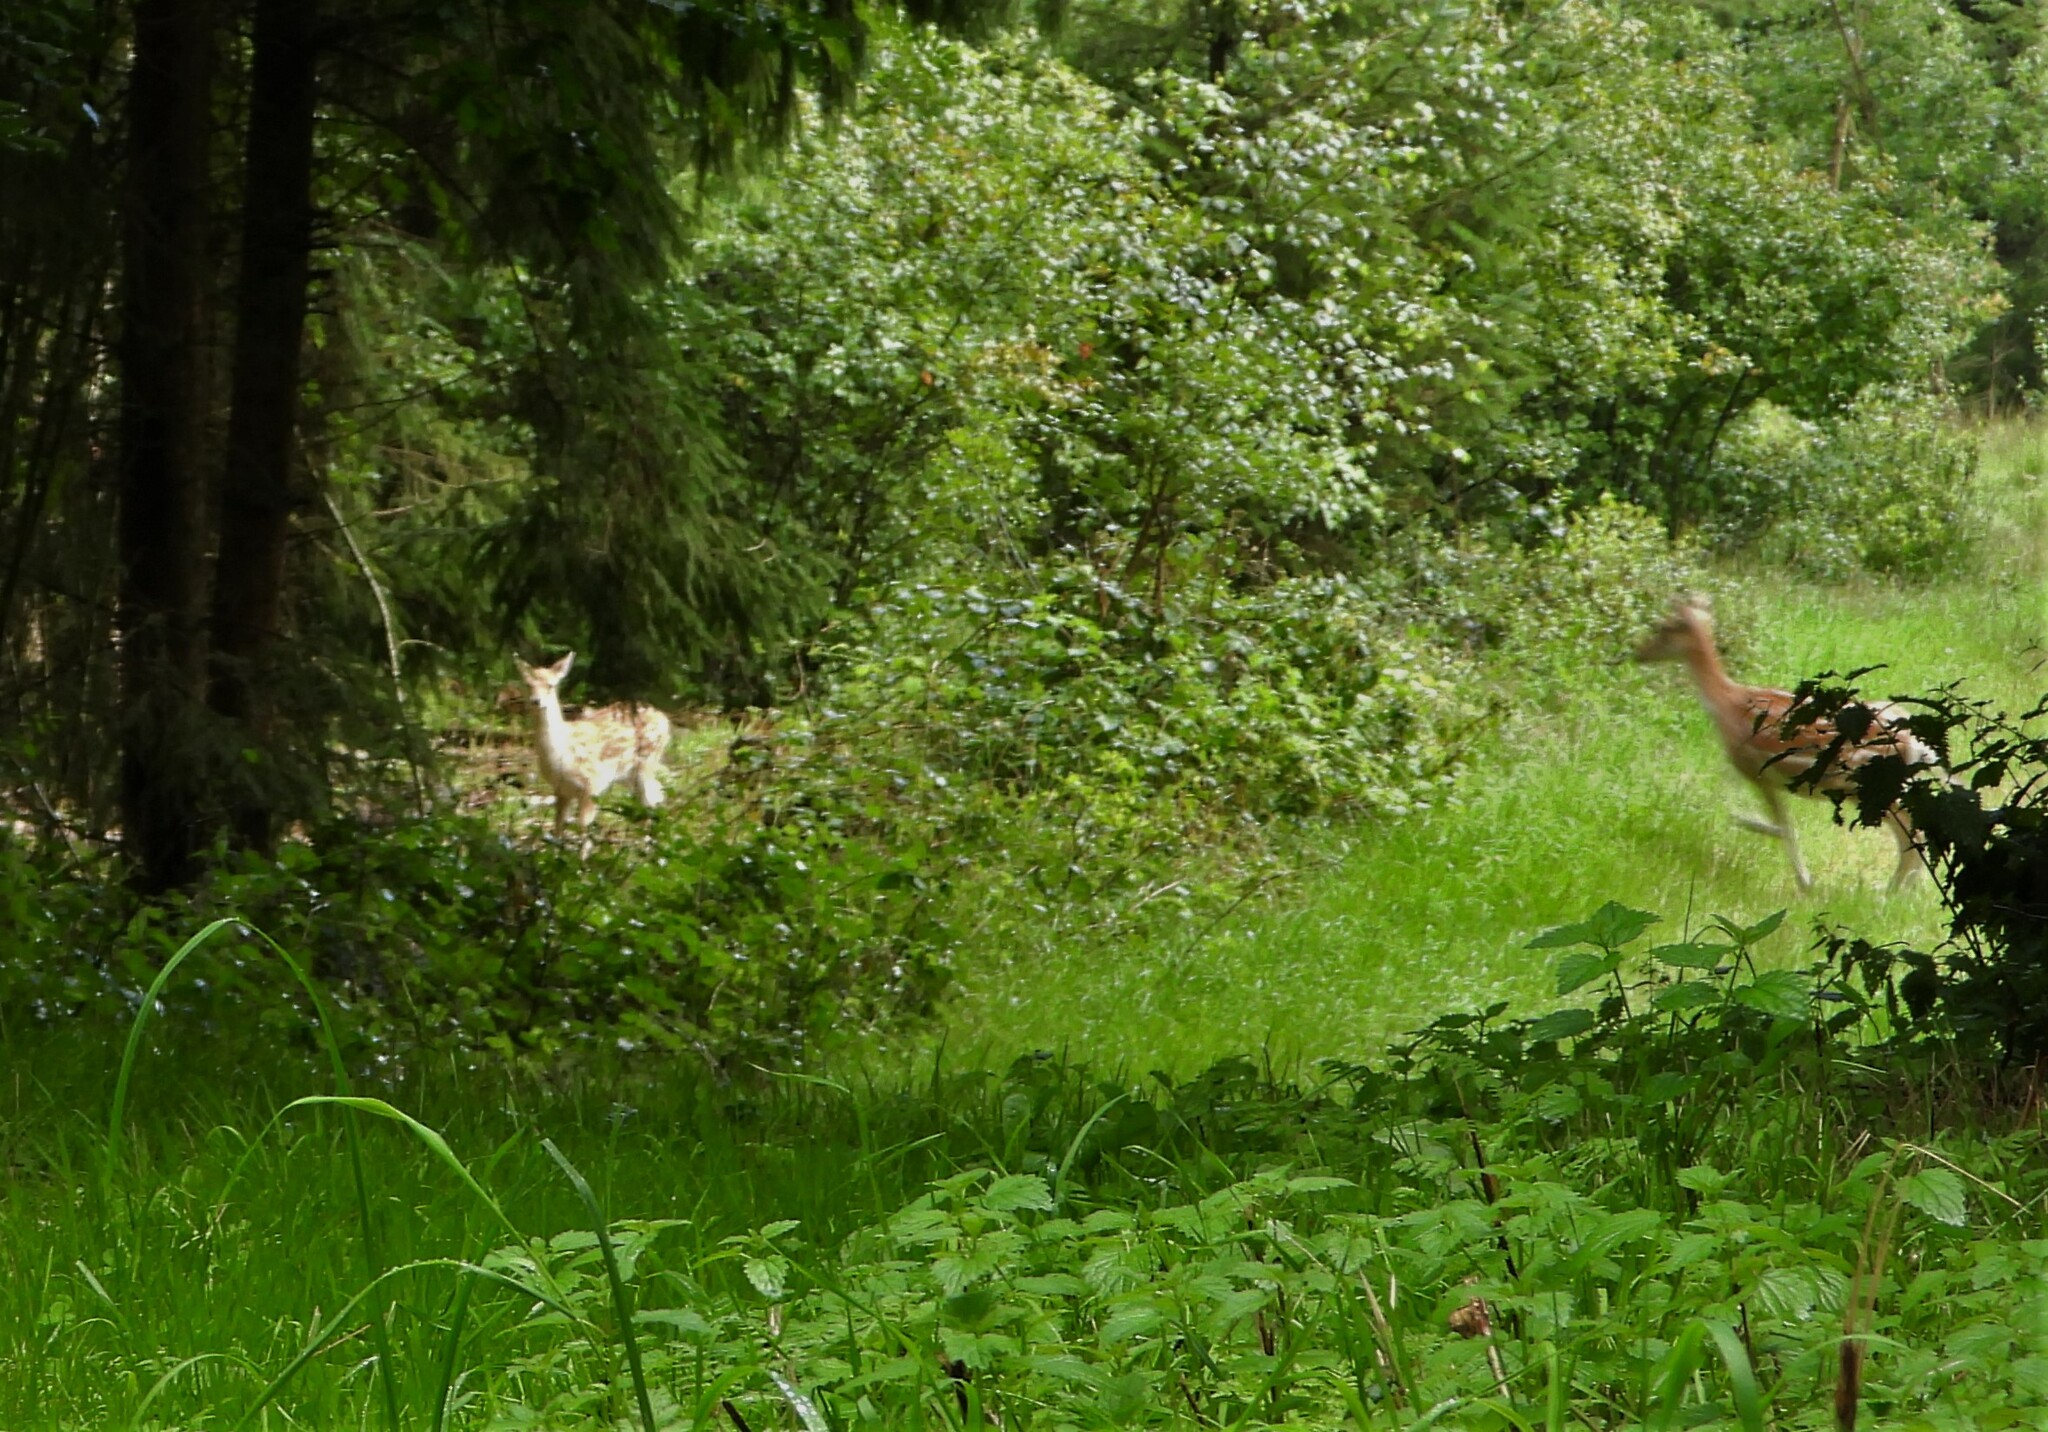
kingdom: Animalia
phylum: Chordata
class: Mammalia
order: Artiodactyla
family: Cervidae
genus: Dama
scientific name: Dama dama
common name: Fallow deer
